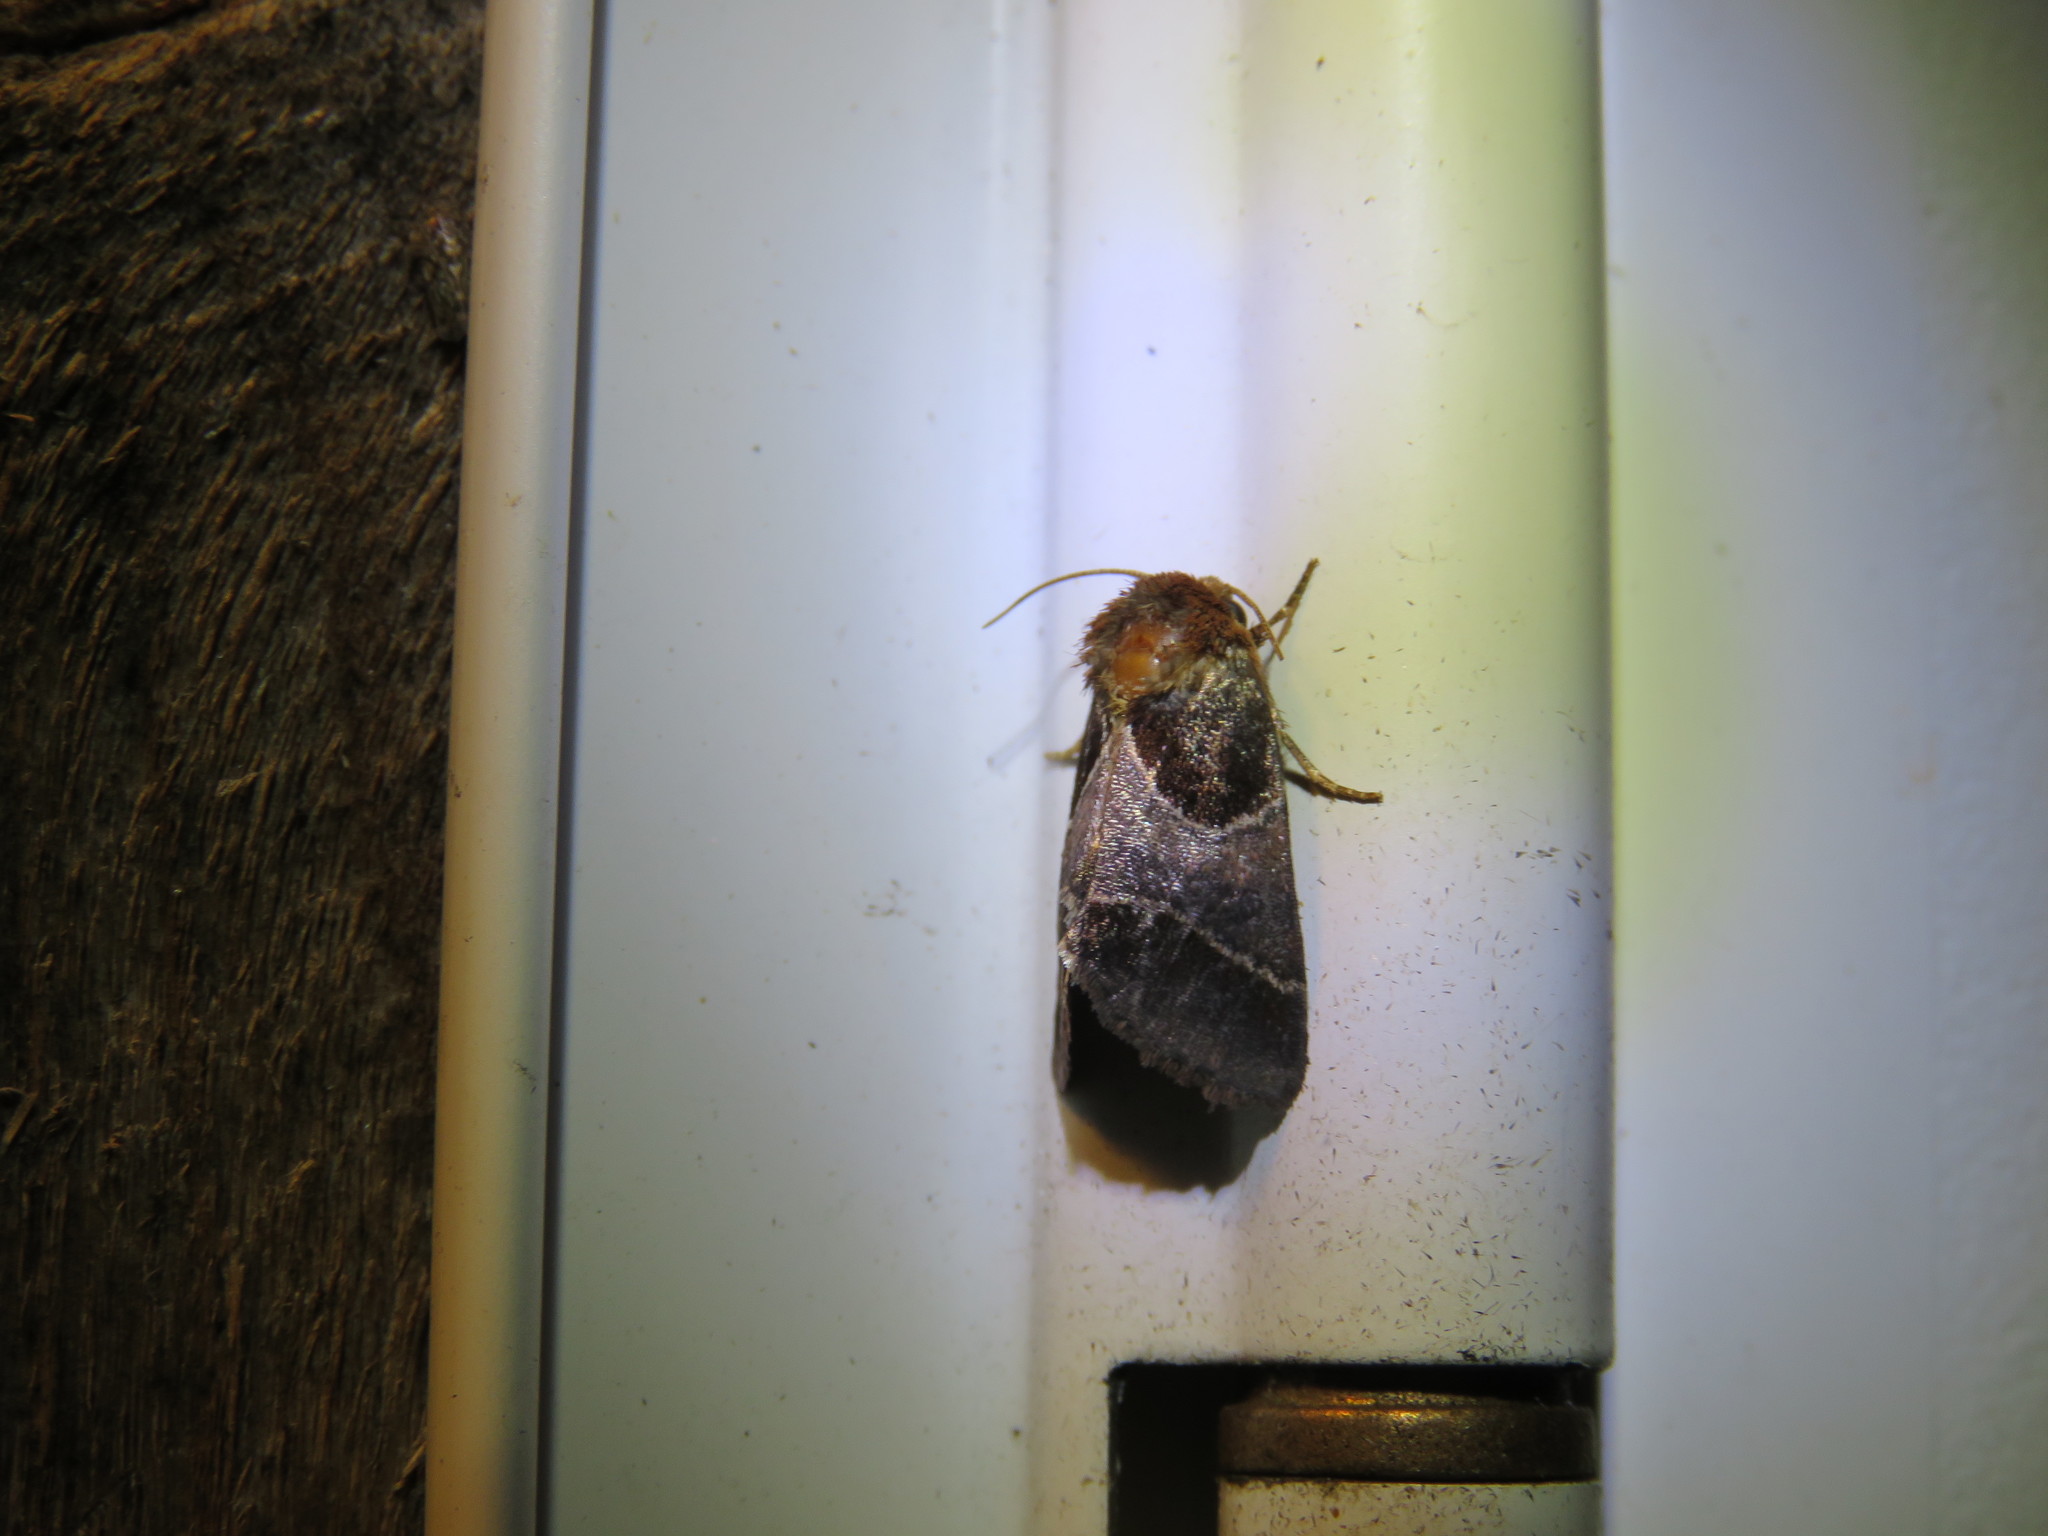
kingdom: Animalia
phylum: Arthropoda
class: Insecta
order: Lepidoptera
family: Noctuidae
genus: Schinia
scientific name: Schinia arcigera
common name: Arcigera flower moth
